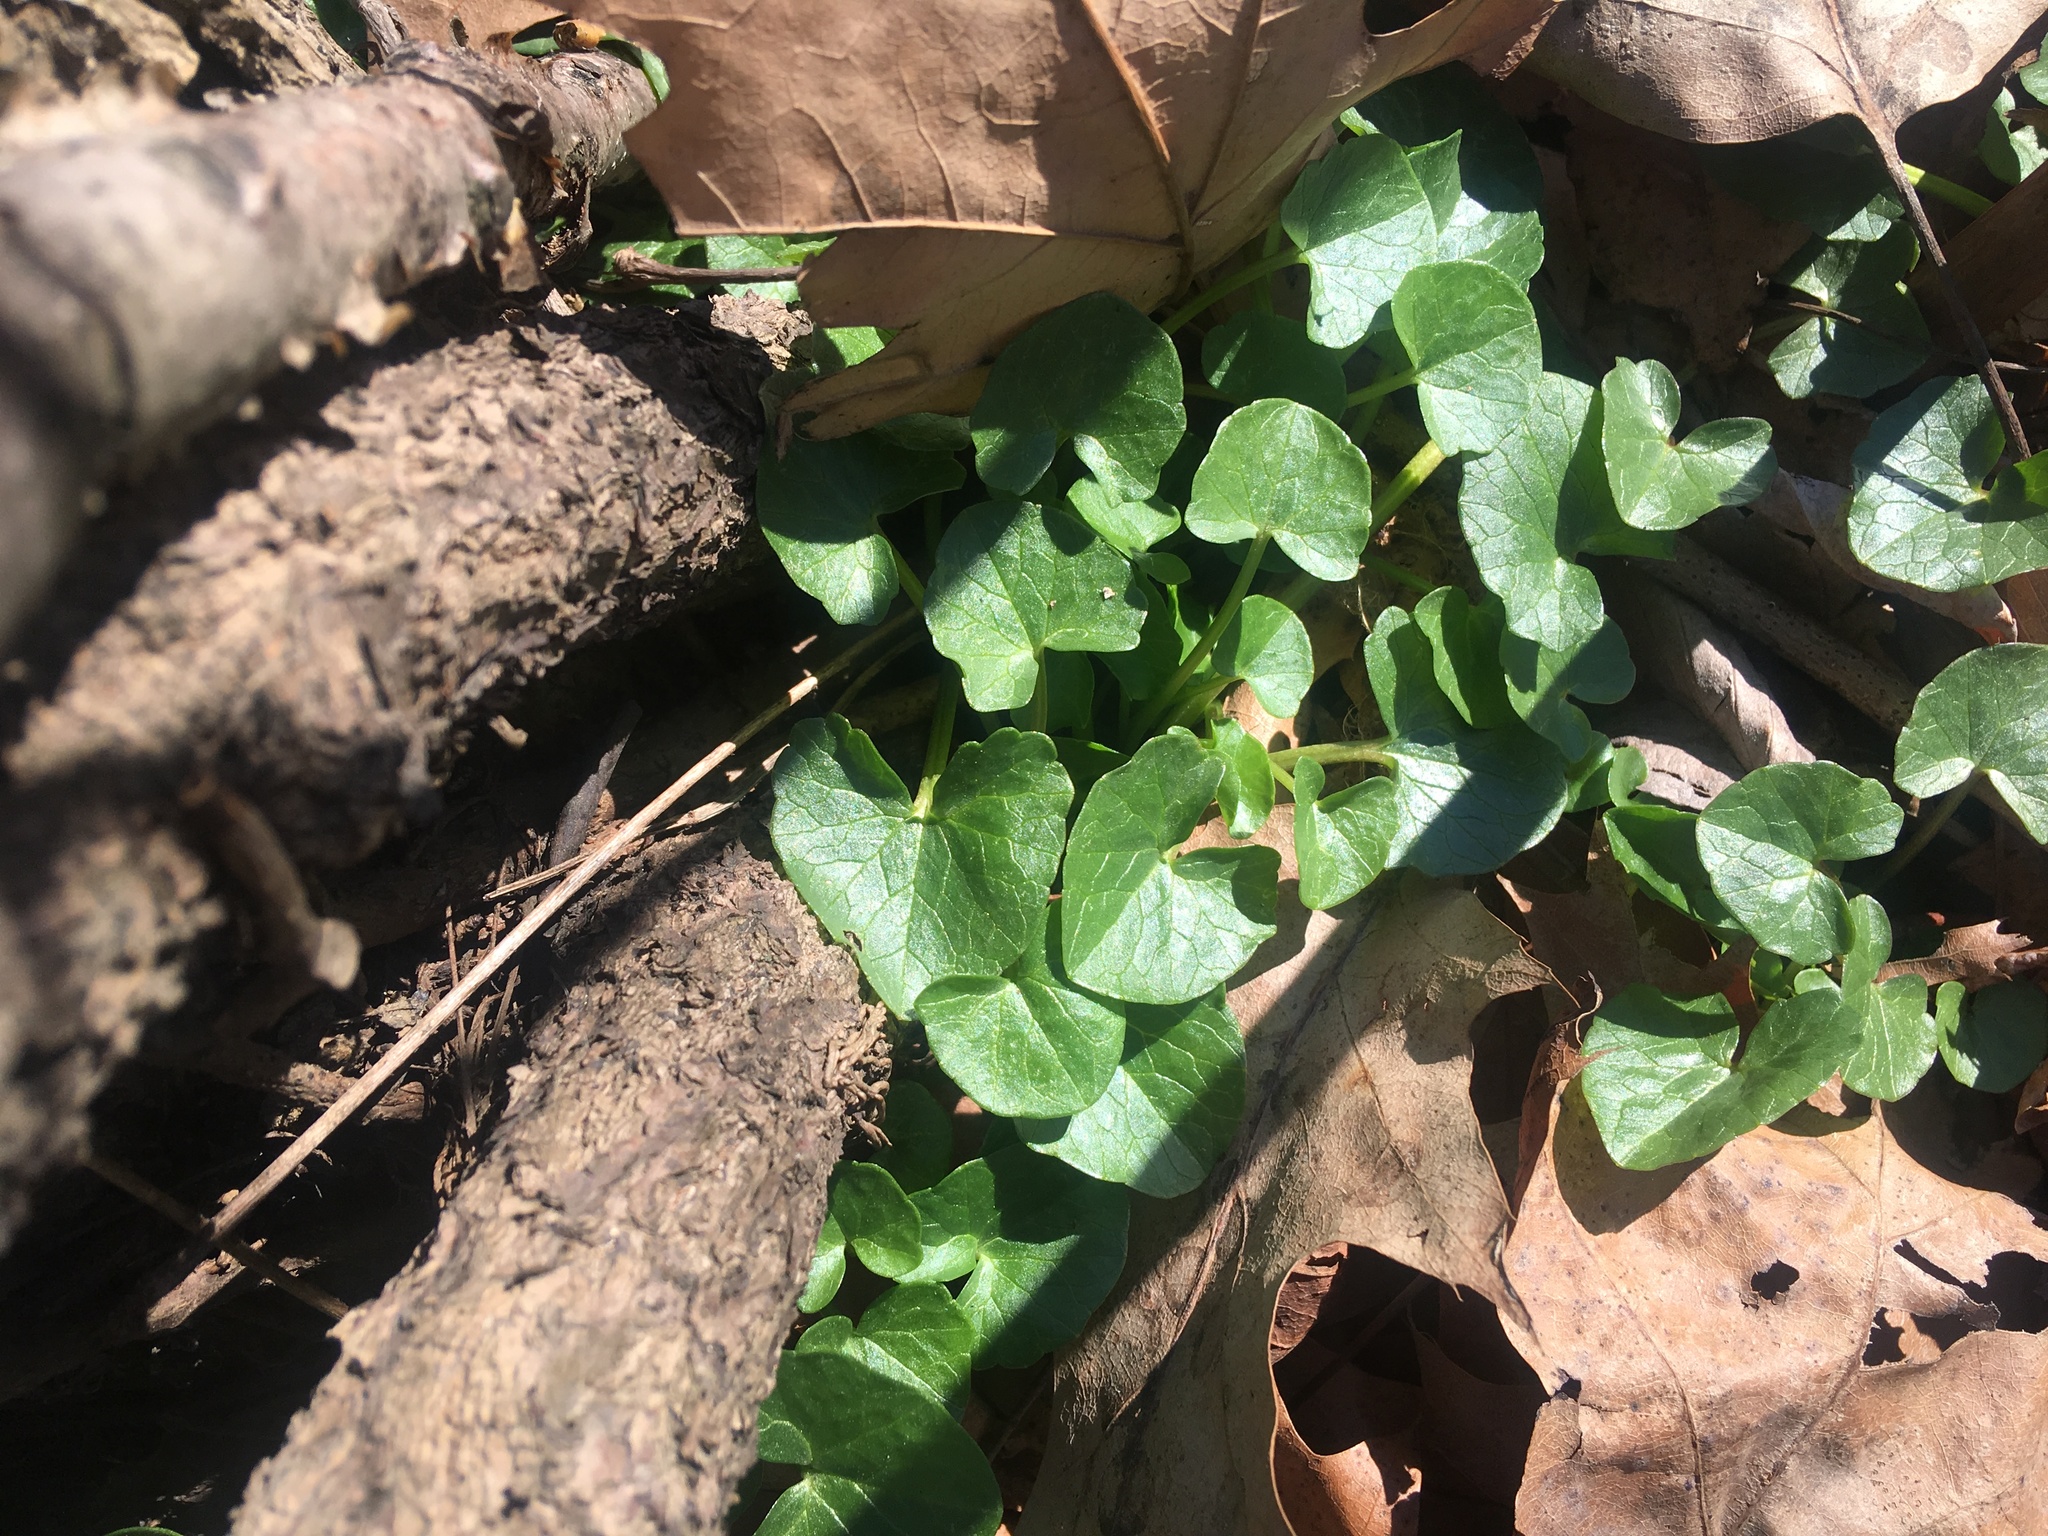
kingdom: Plantae
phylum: Tracheophyta
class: Magnoliopsida
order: Ranunculales
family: Ranunculaceae
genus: Ficaria
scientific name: Ficaria verna
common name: Lesser celandine
